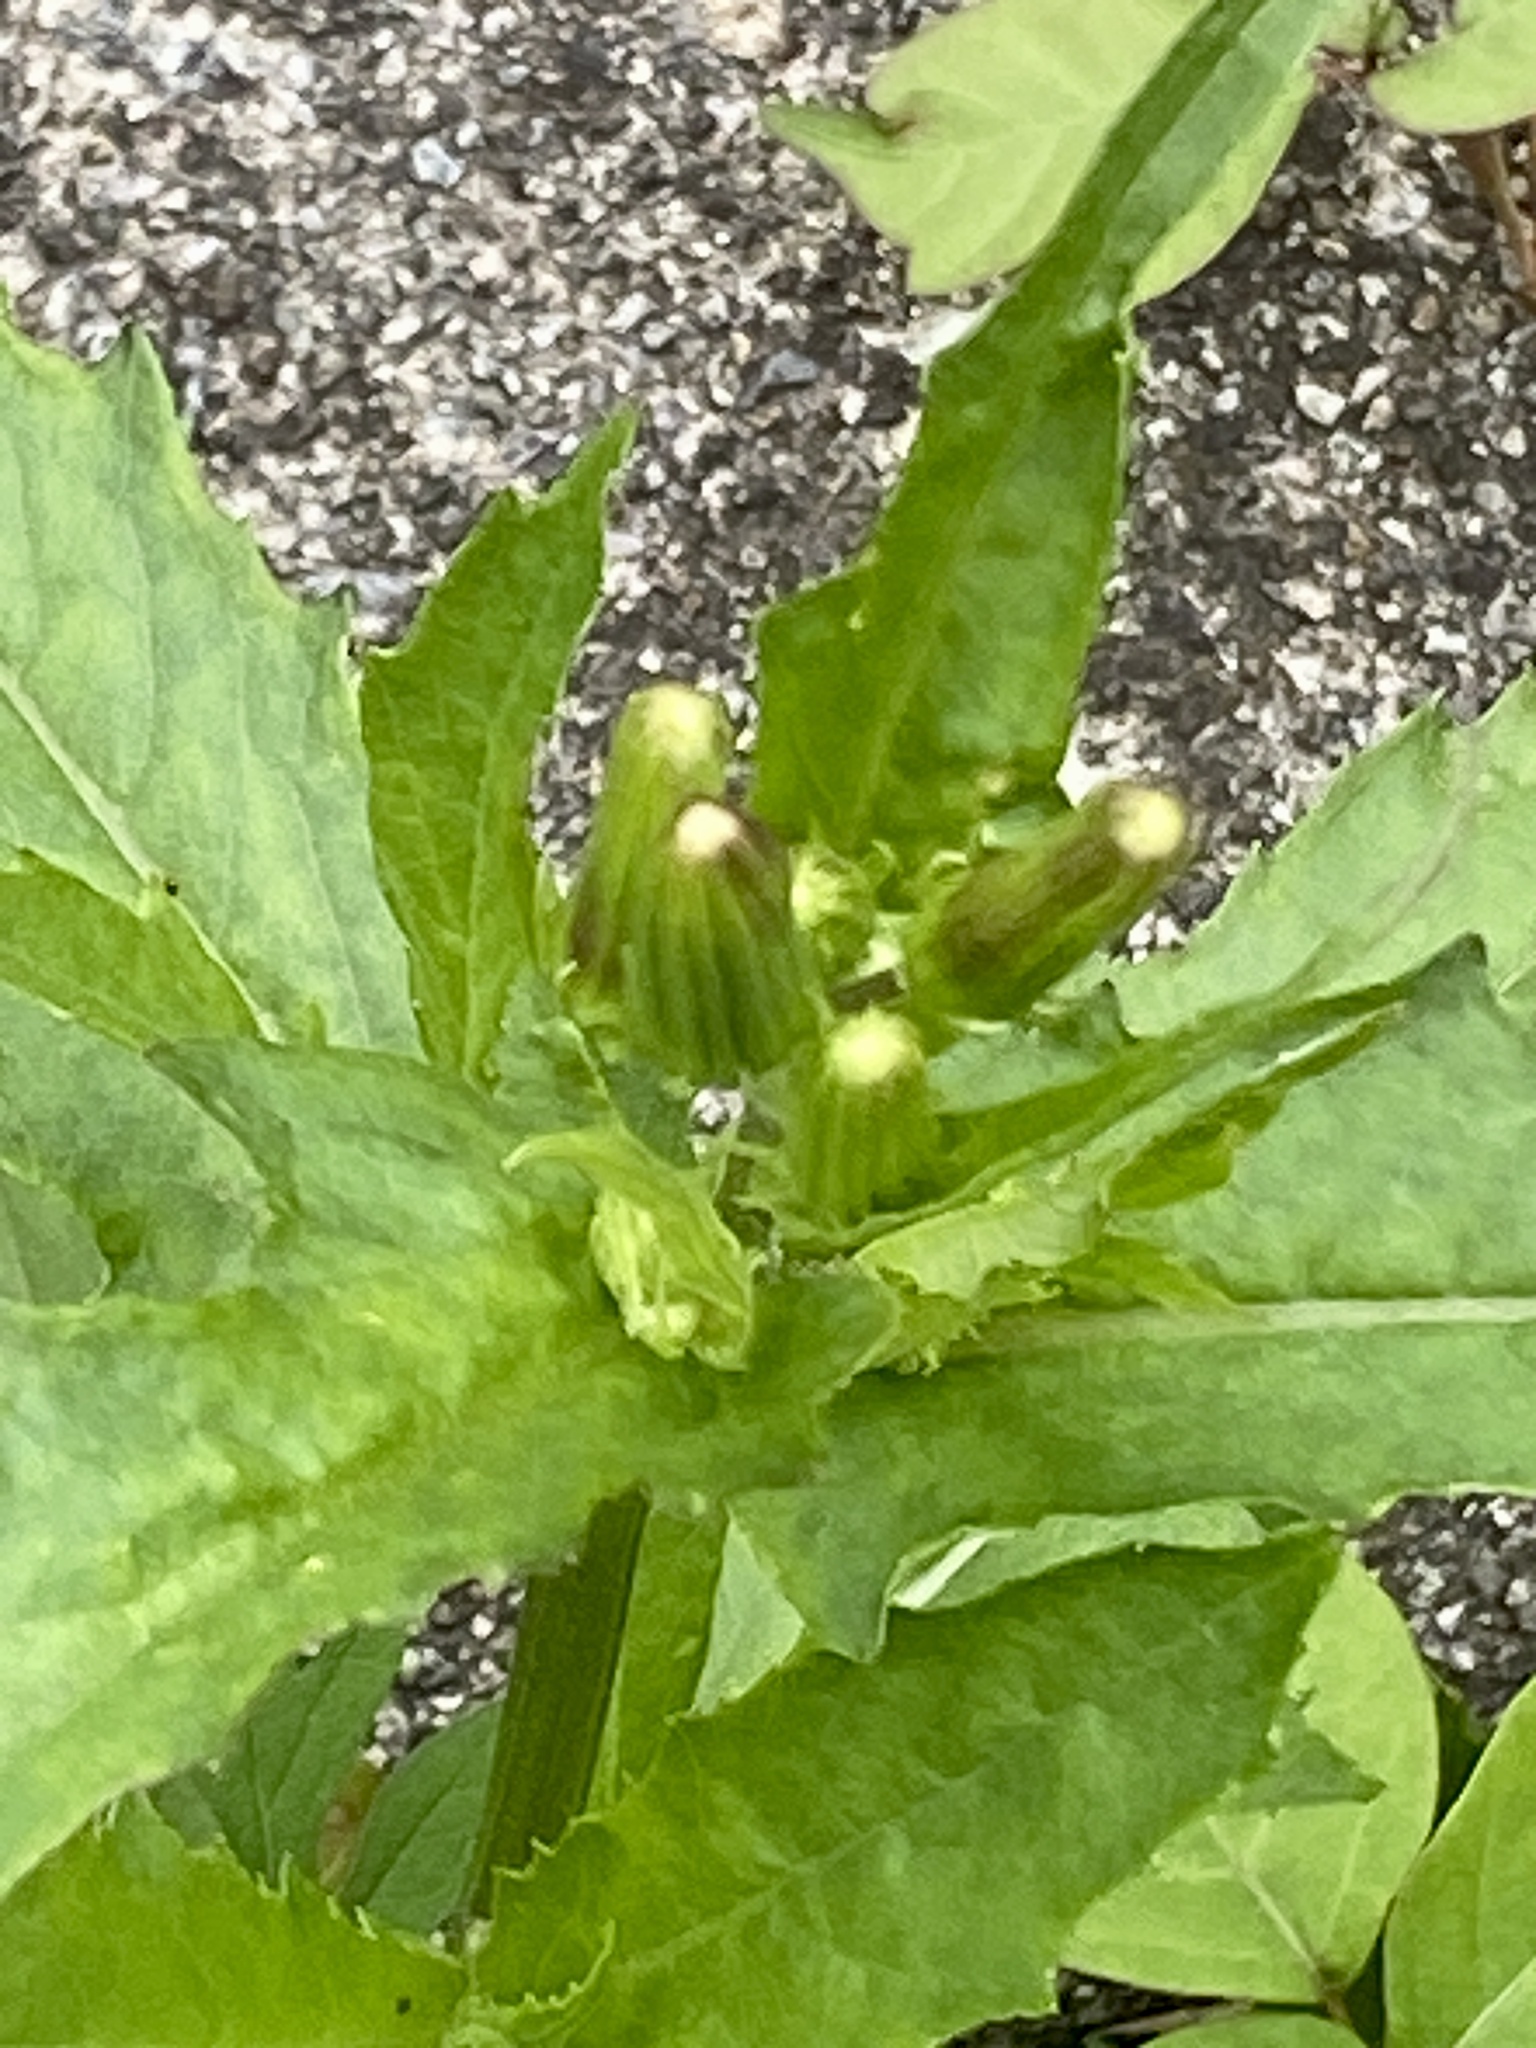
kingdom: Plantae
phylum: Tracheophyta
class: Magnoliopsida
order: Asterales
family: Asteraceae
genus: Erechtites
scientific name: Erechtites hieraciifolius
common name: American burnweed
